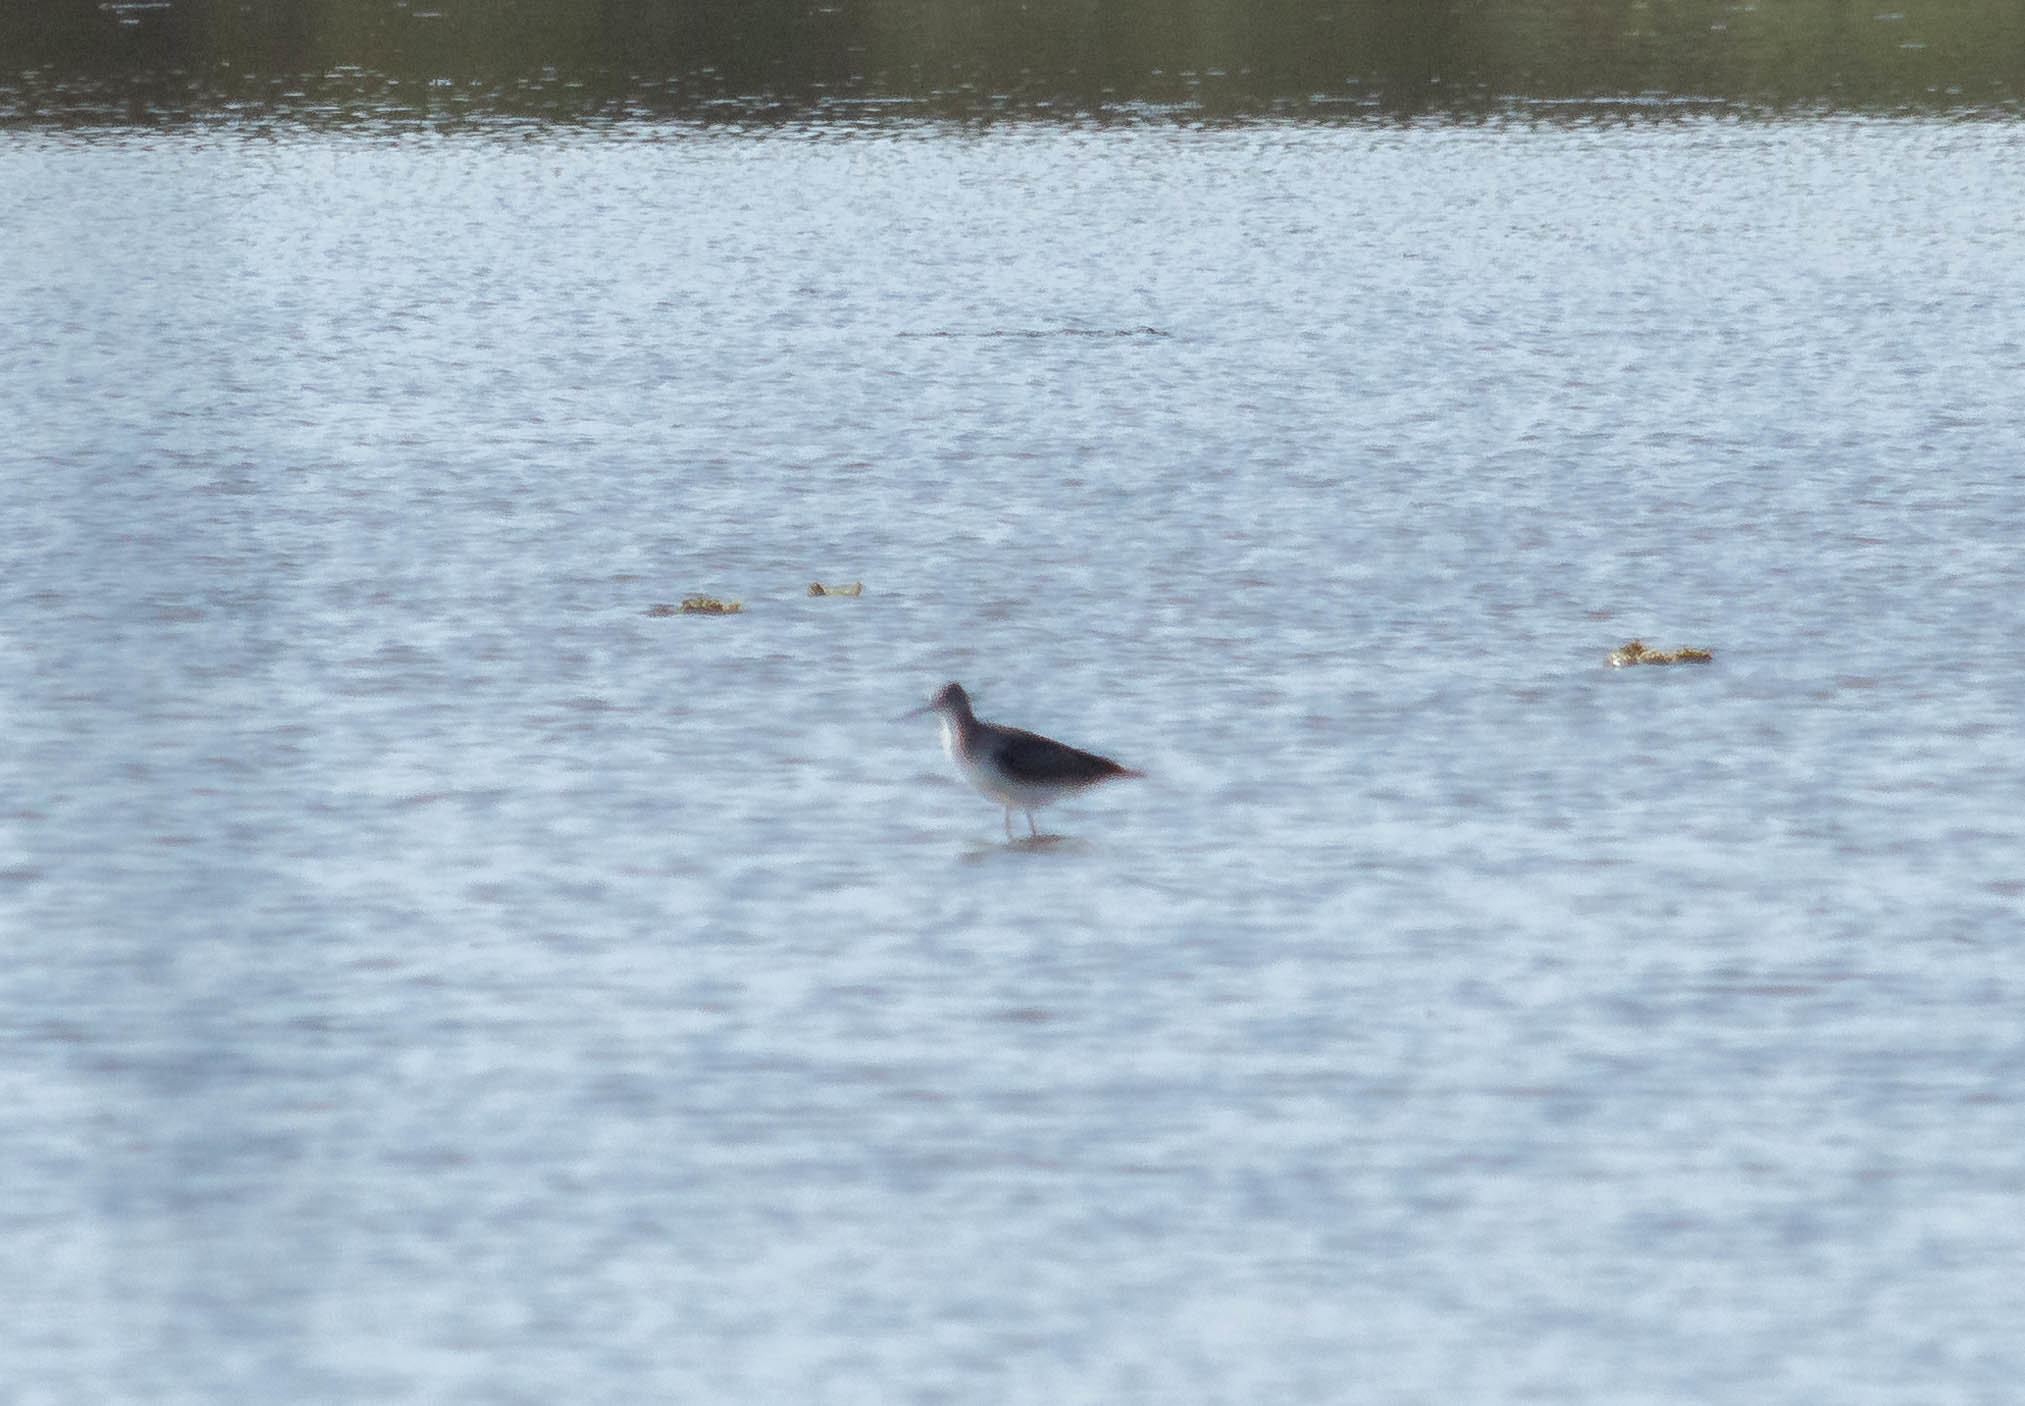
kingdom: Animalia
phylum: Chordata
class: Aves
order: Charadriiformes
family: Scolopacidae
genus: Tringa
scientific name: Tringa melanoleuca
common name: Greater yellowlegs
